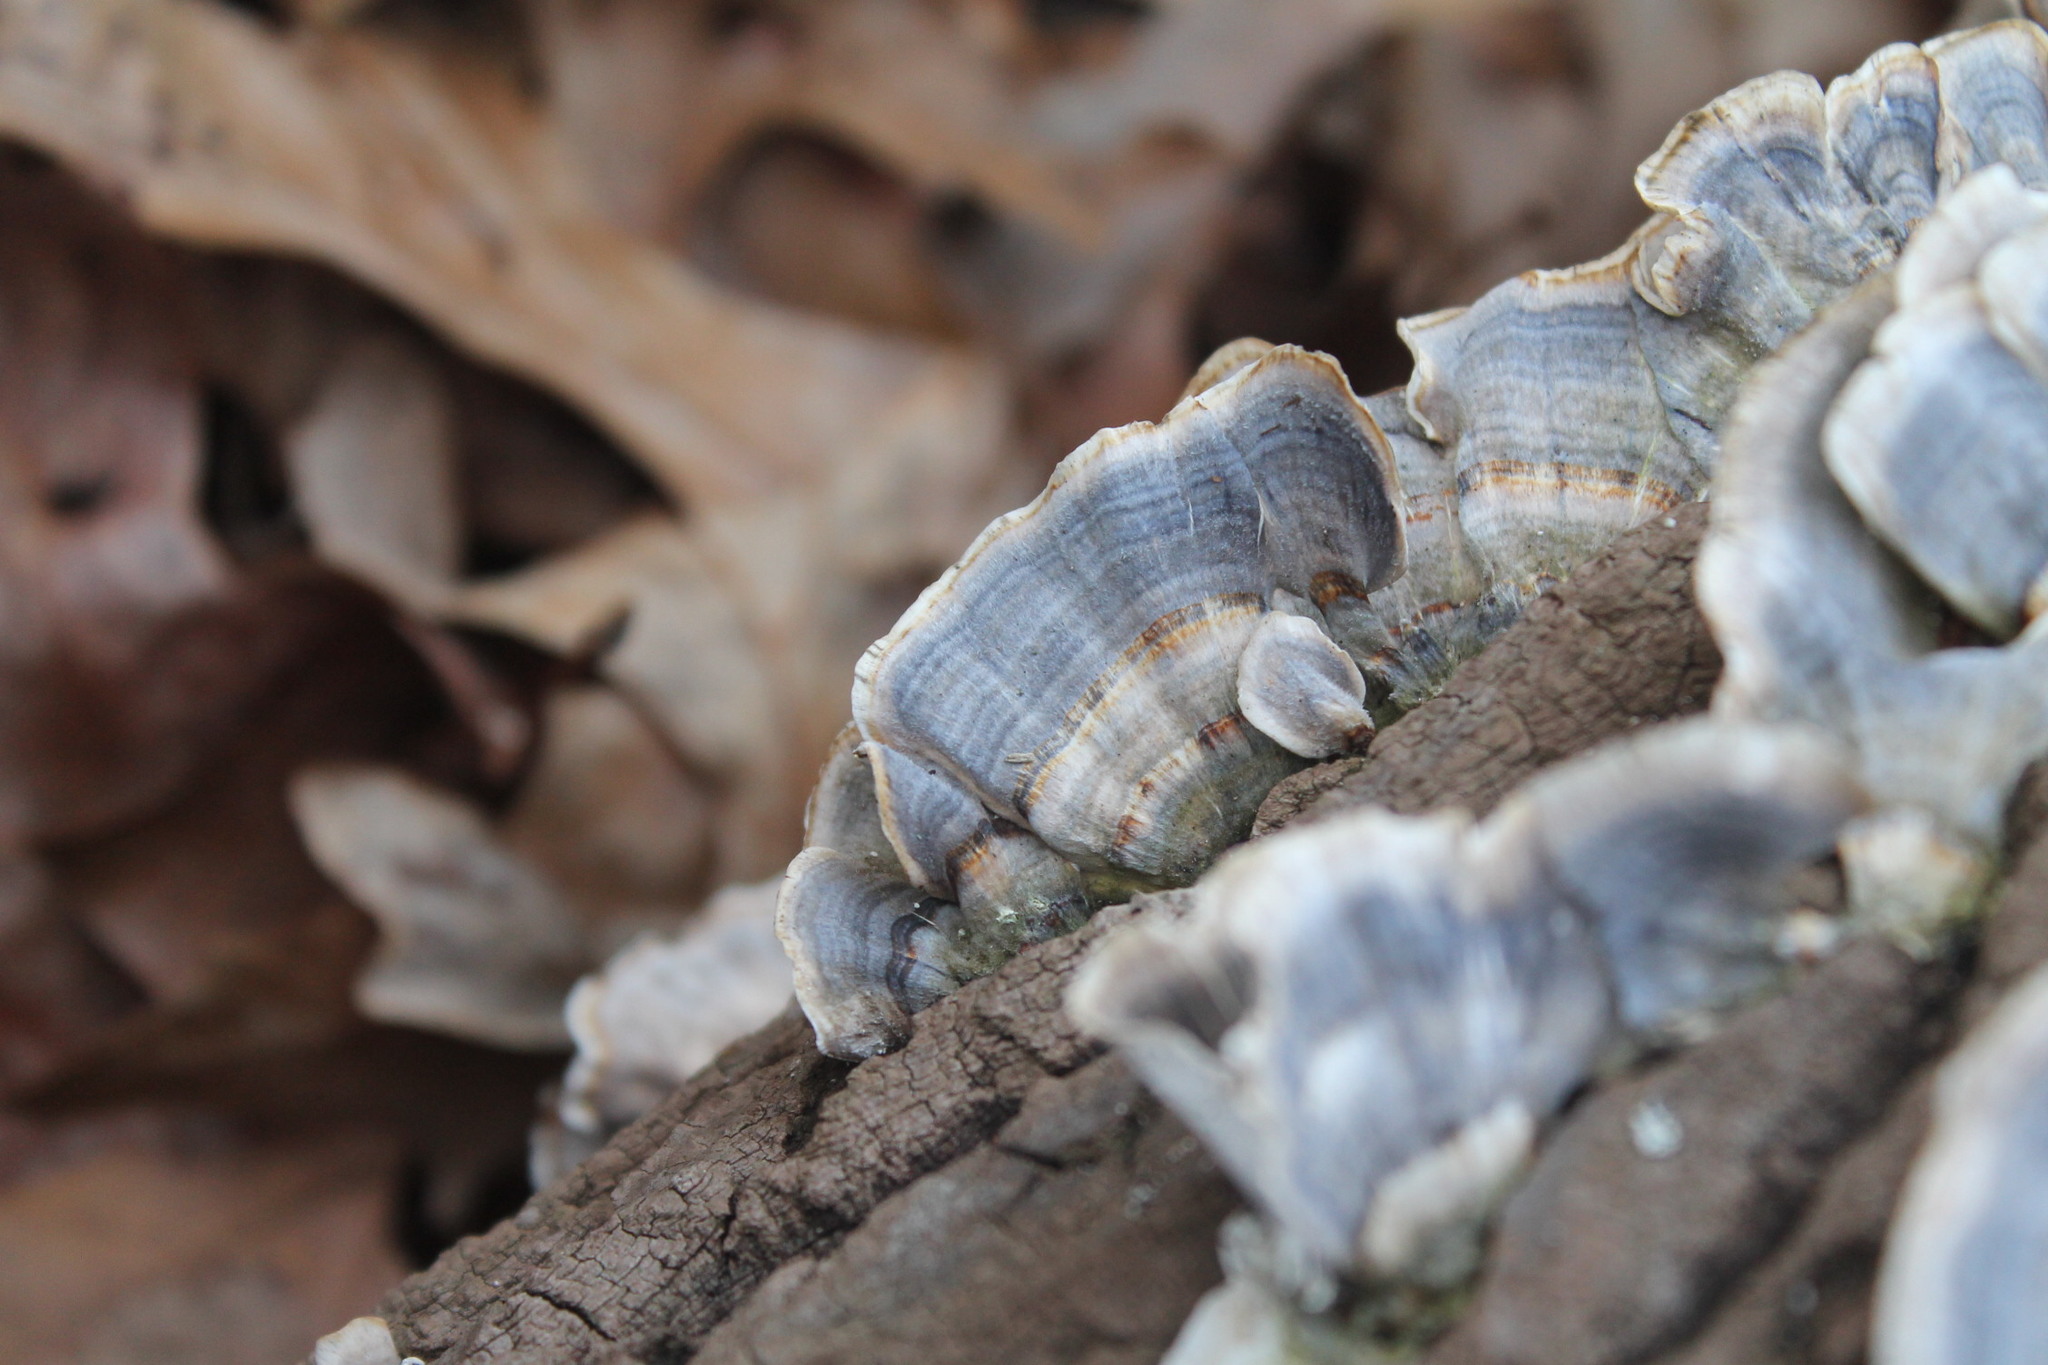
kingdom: Fungi
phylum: Basidiomycota
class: Agaricomycetes
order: Polyporales
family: Polyporaceae
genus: Trametes
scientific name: Trametes versicolor
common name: Turkeytail
